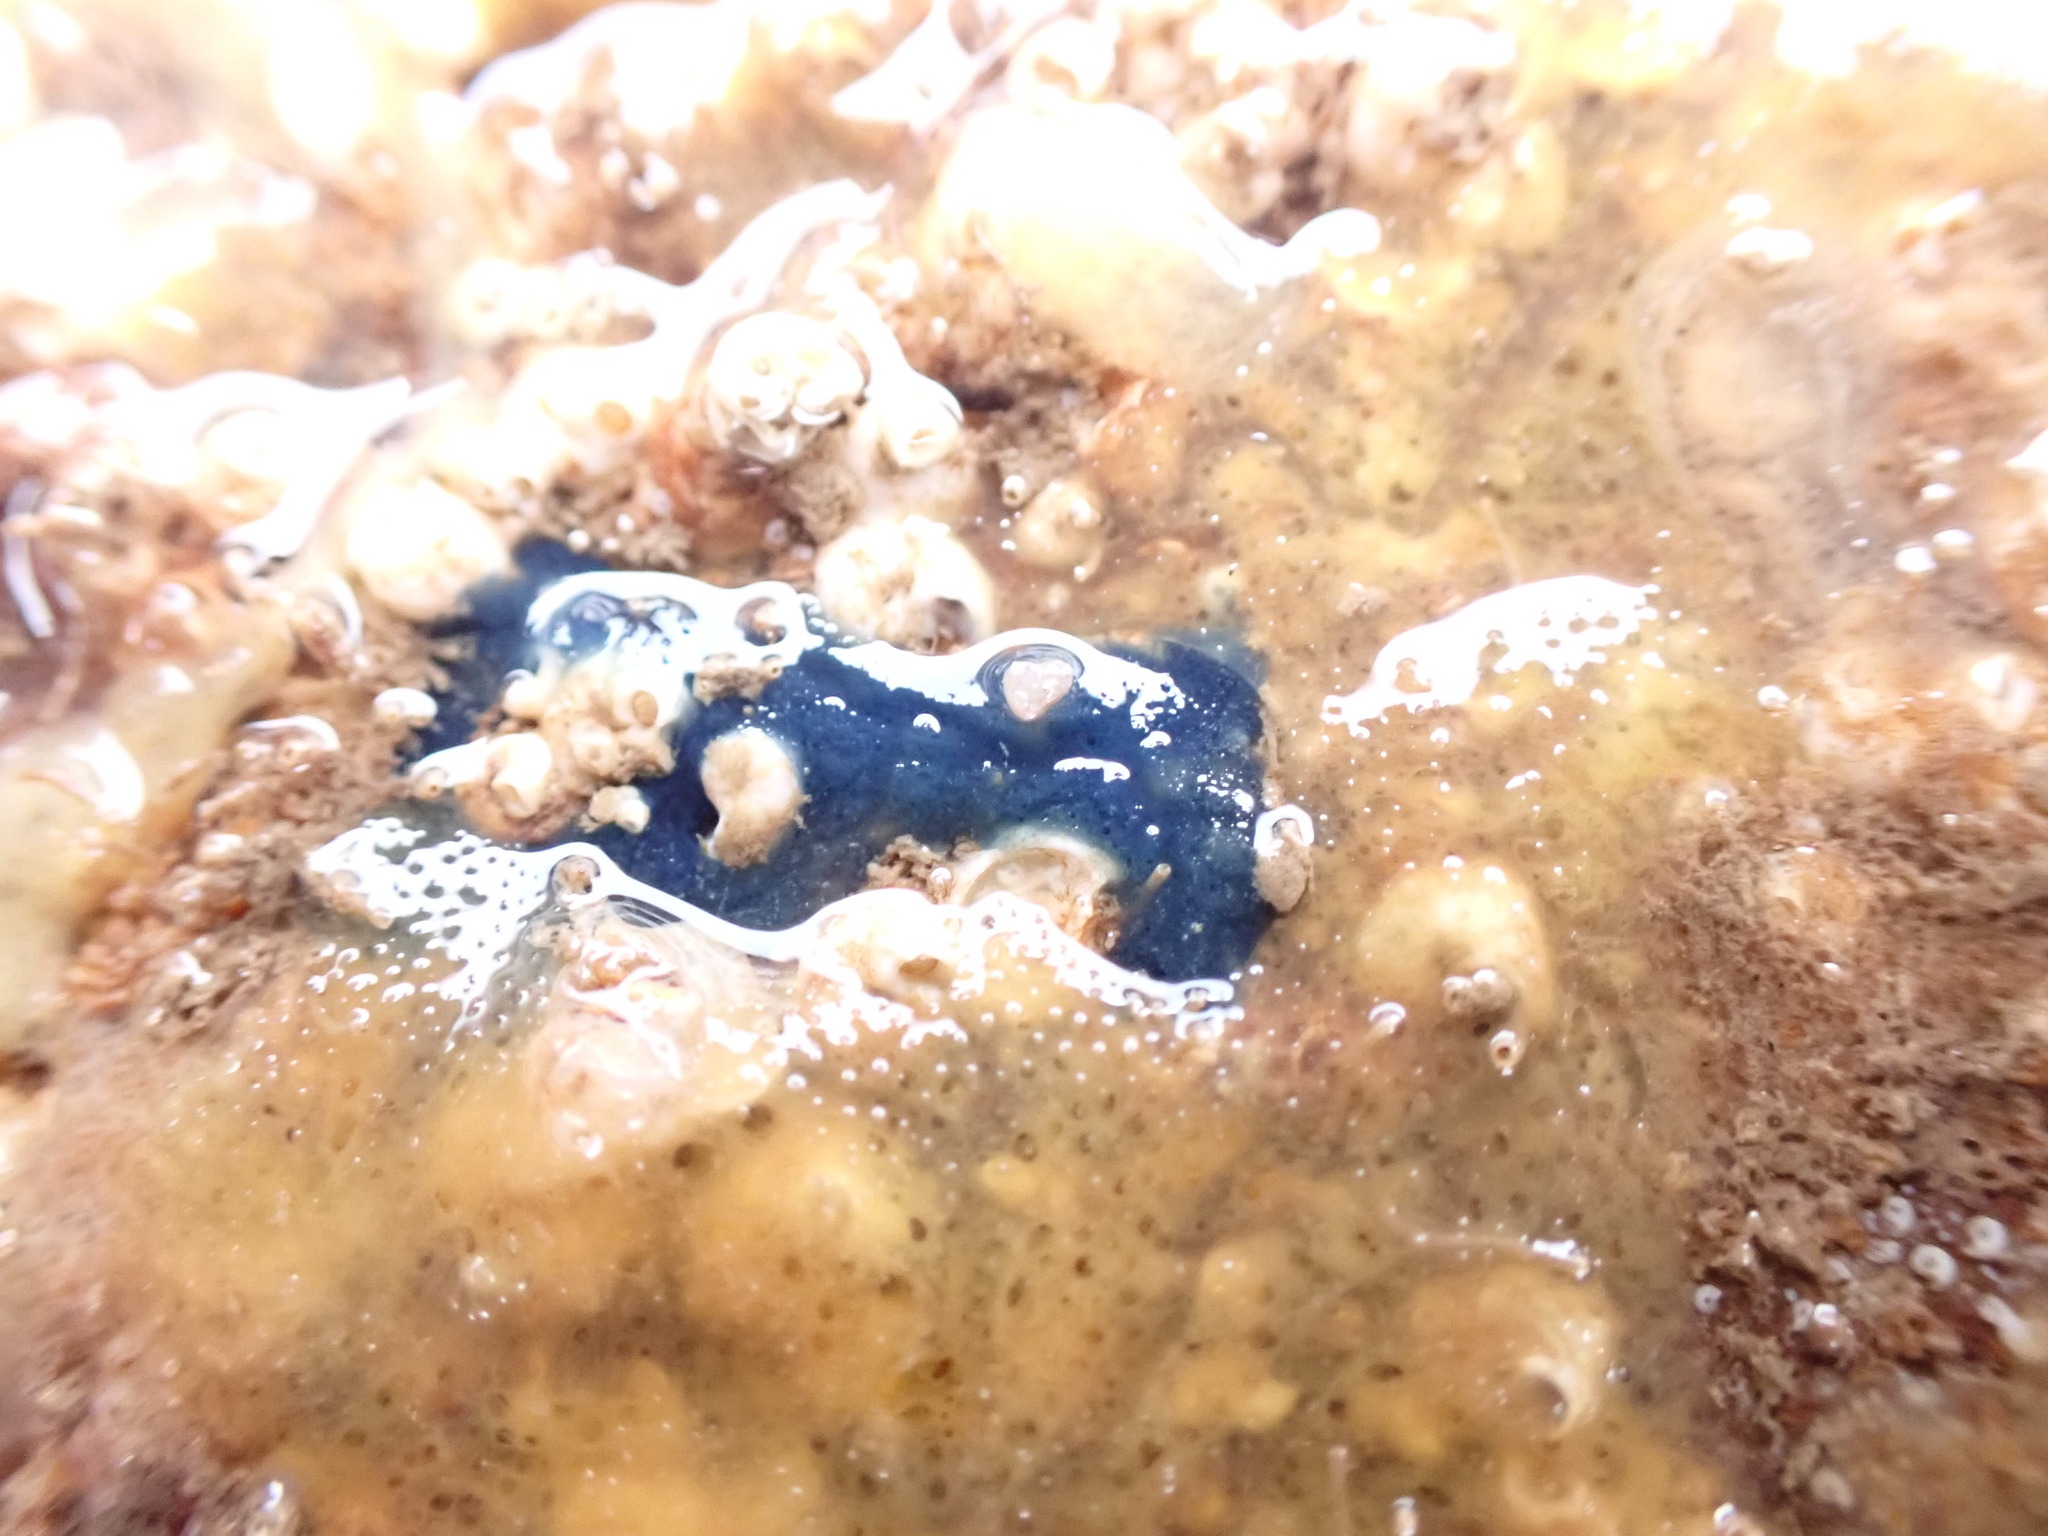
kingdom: Animalia
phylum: Porifera
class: Demospongiae
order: Suberitida
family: Suberitidae
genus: Terpios
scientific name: Terpios gelatinosus
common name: Blue encrusting sponge
